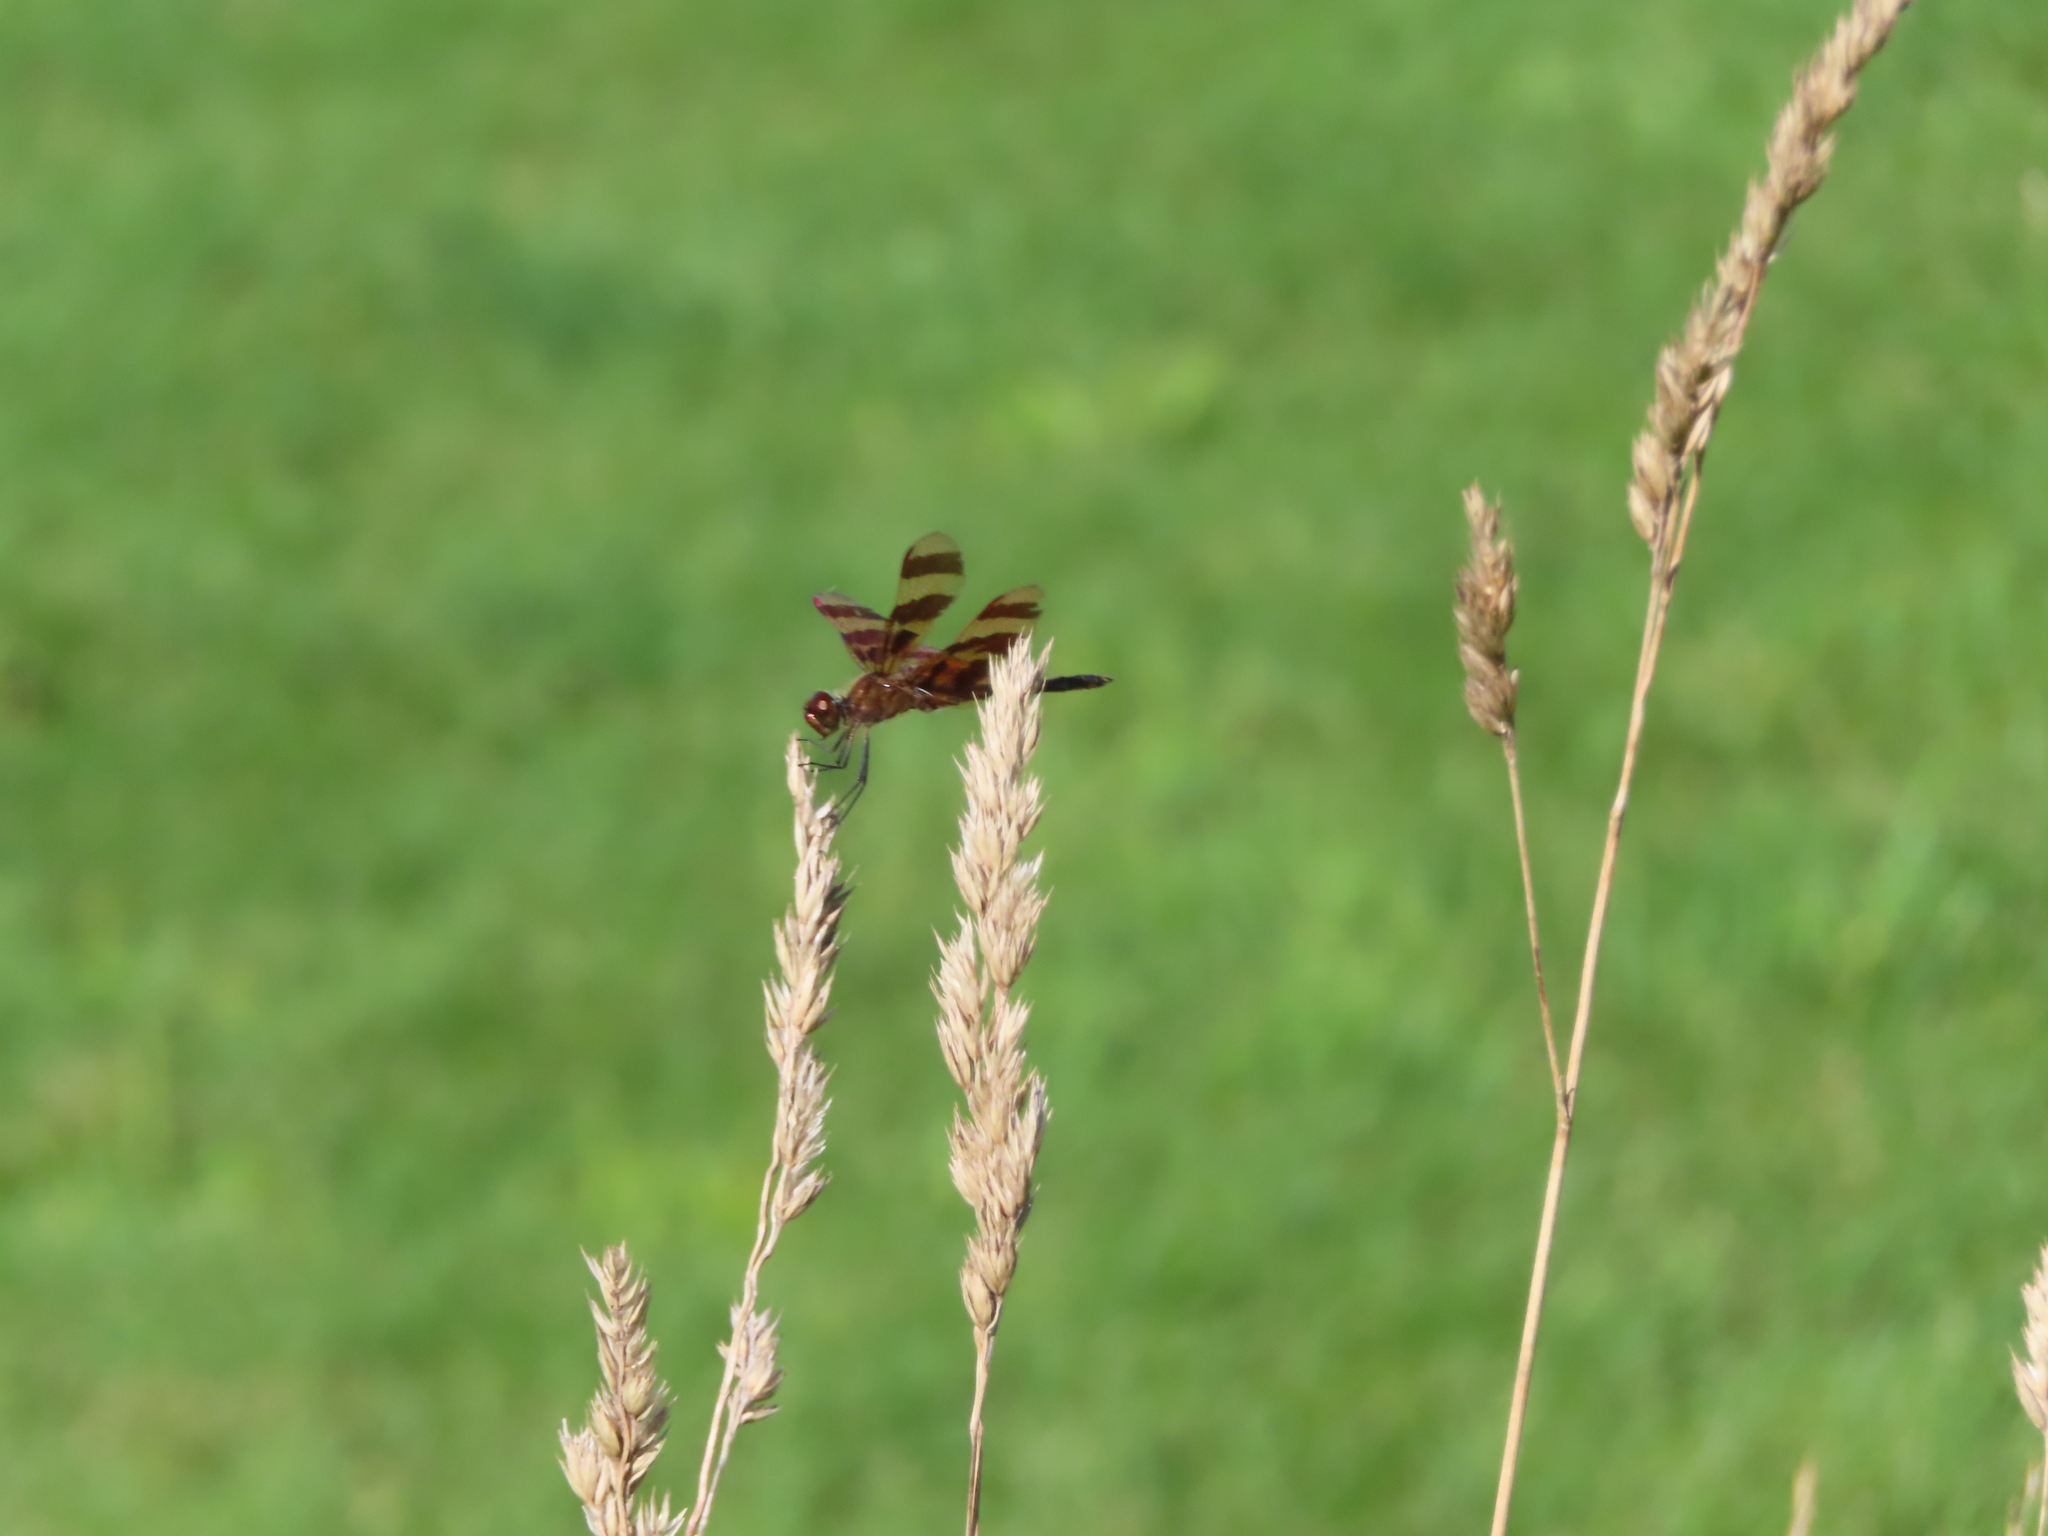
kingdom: Animalia
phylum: Arthropoda
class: Insecta
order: Odonata
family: Libellulidae
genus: Celithemis
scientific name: Celithemis eponina
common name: Halloween pennant
